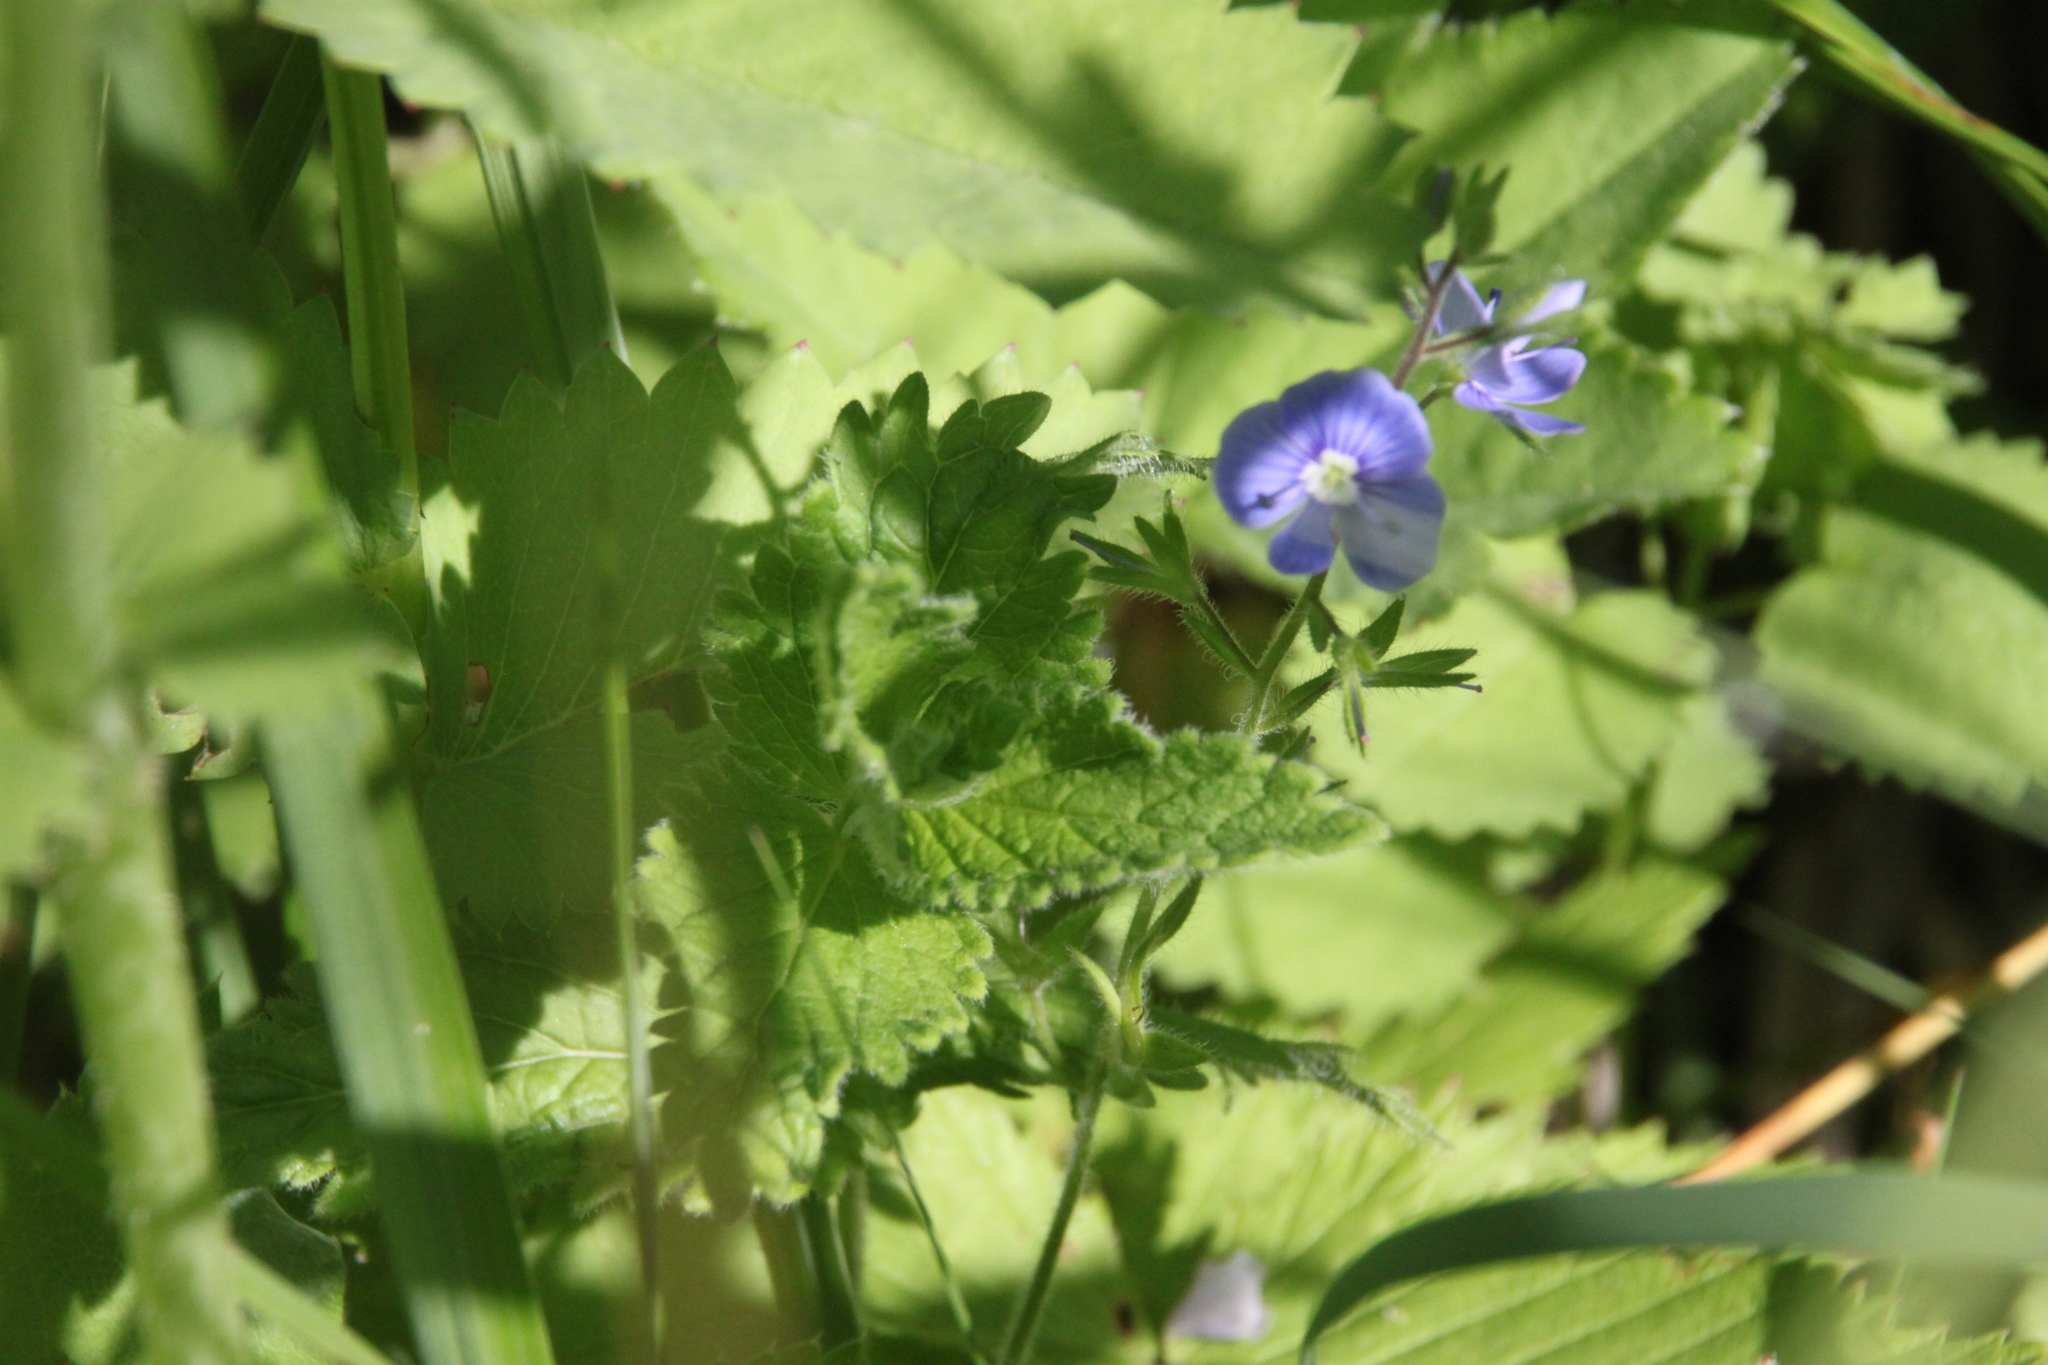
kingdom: Plantae
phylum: Tracheophyta
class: Magnoliopsida
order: Lamiales
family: Plantaginaceae
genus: Veronica
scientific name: Veronica chamaedrys
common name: Germander speedwell
